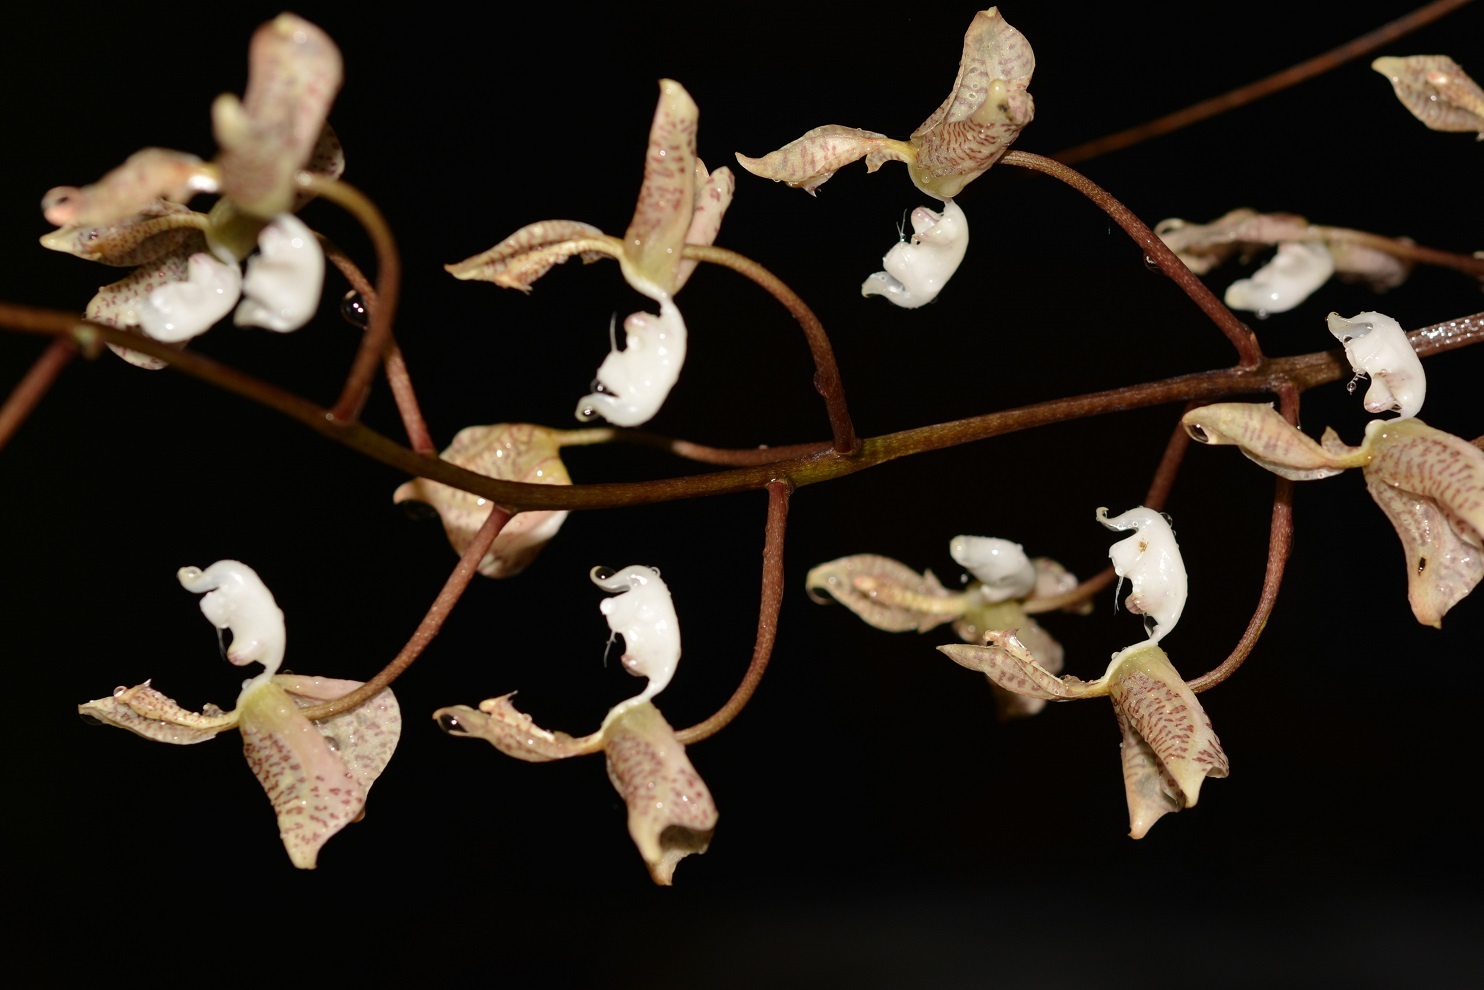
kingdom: Plantae
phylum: Tracheophyta
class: Liliopsida
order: Asparagales
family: Orchidaceae
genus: Gongora
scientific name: Gongora truncata
